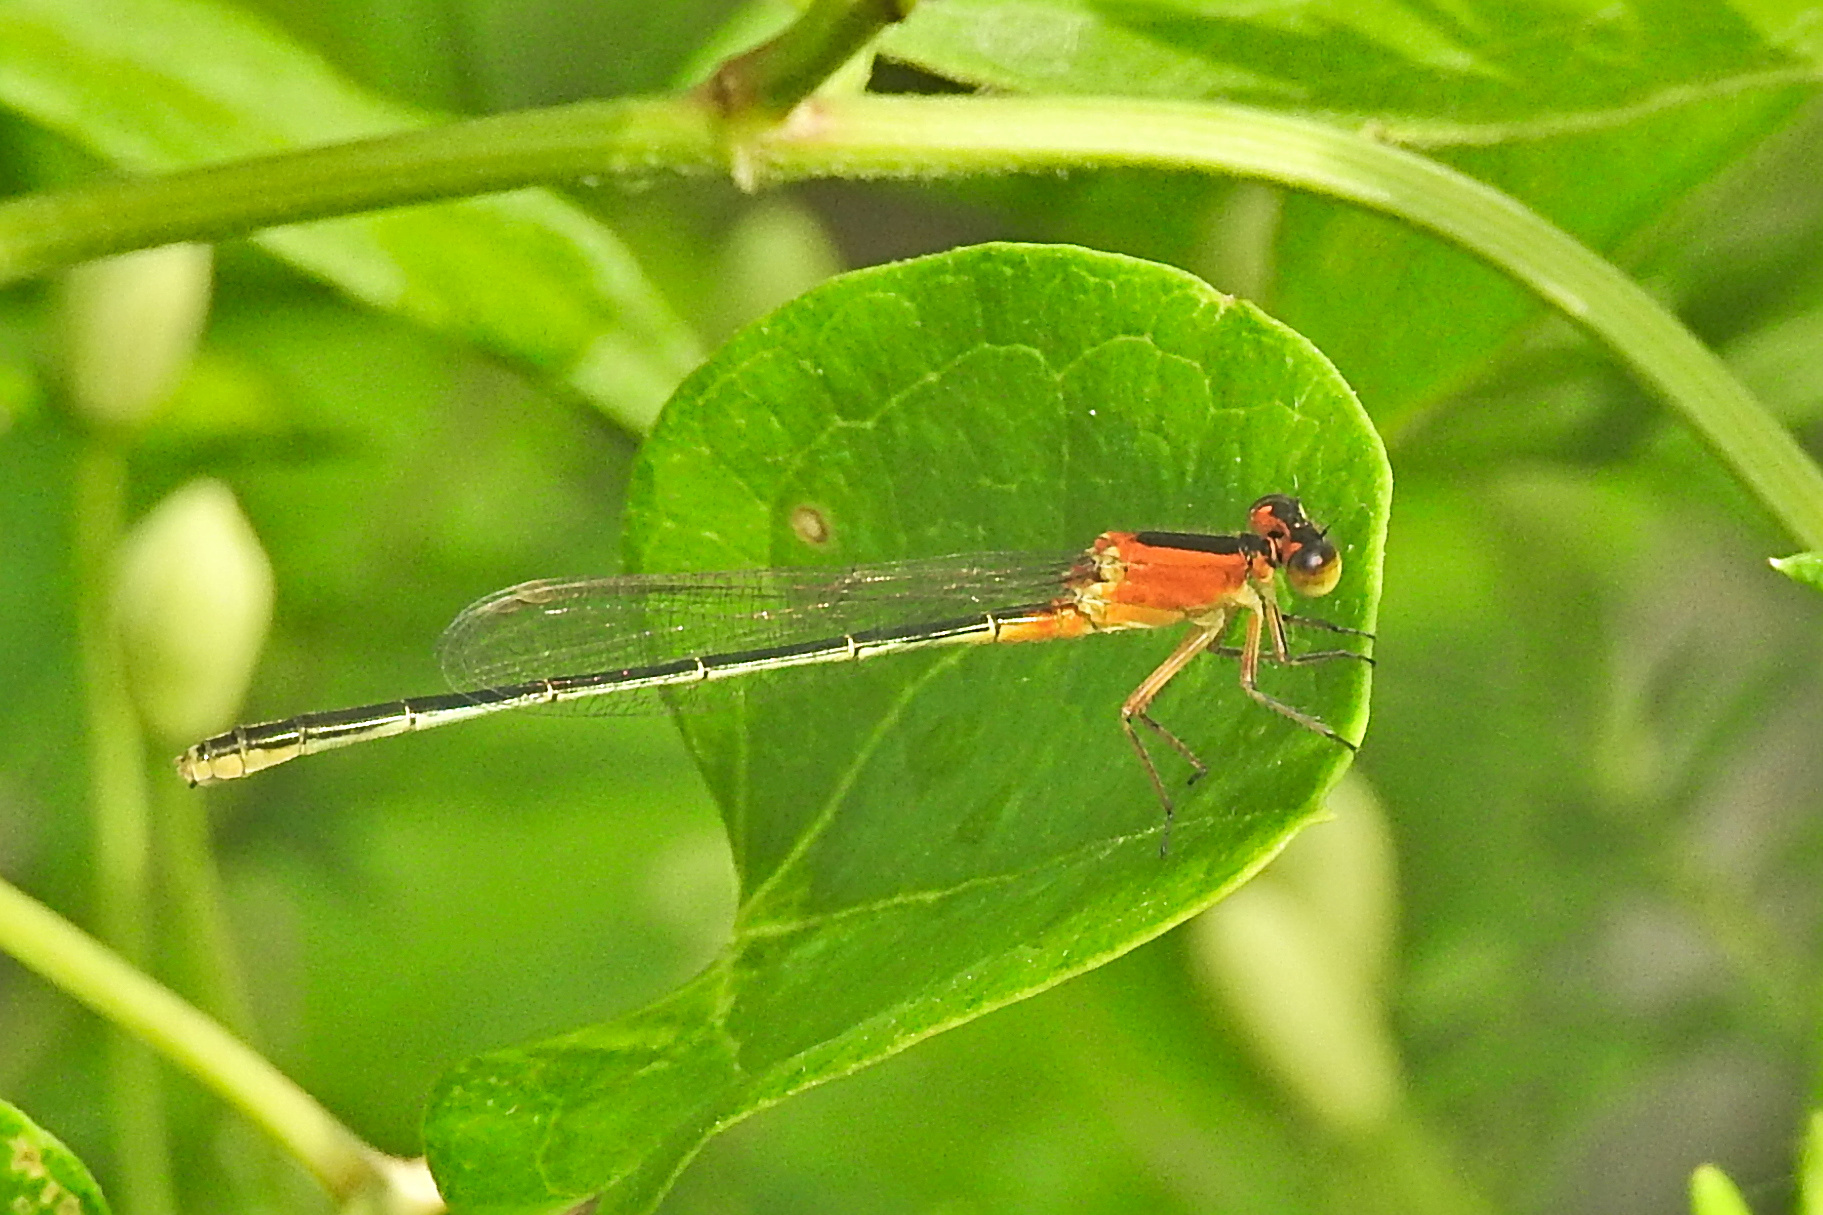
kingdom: Animalia
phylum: Arthropoda
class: Insecta
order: Odonata
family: Coenagrionidae
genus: Ischnura
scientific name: Ischnura ramburii
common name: Rambur's forktail
